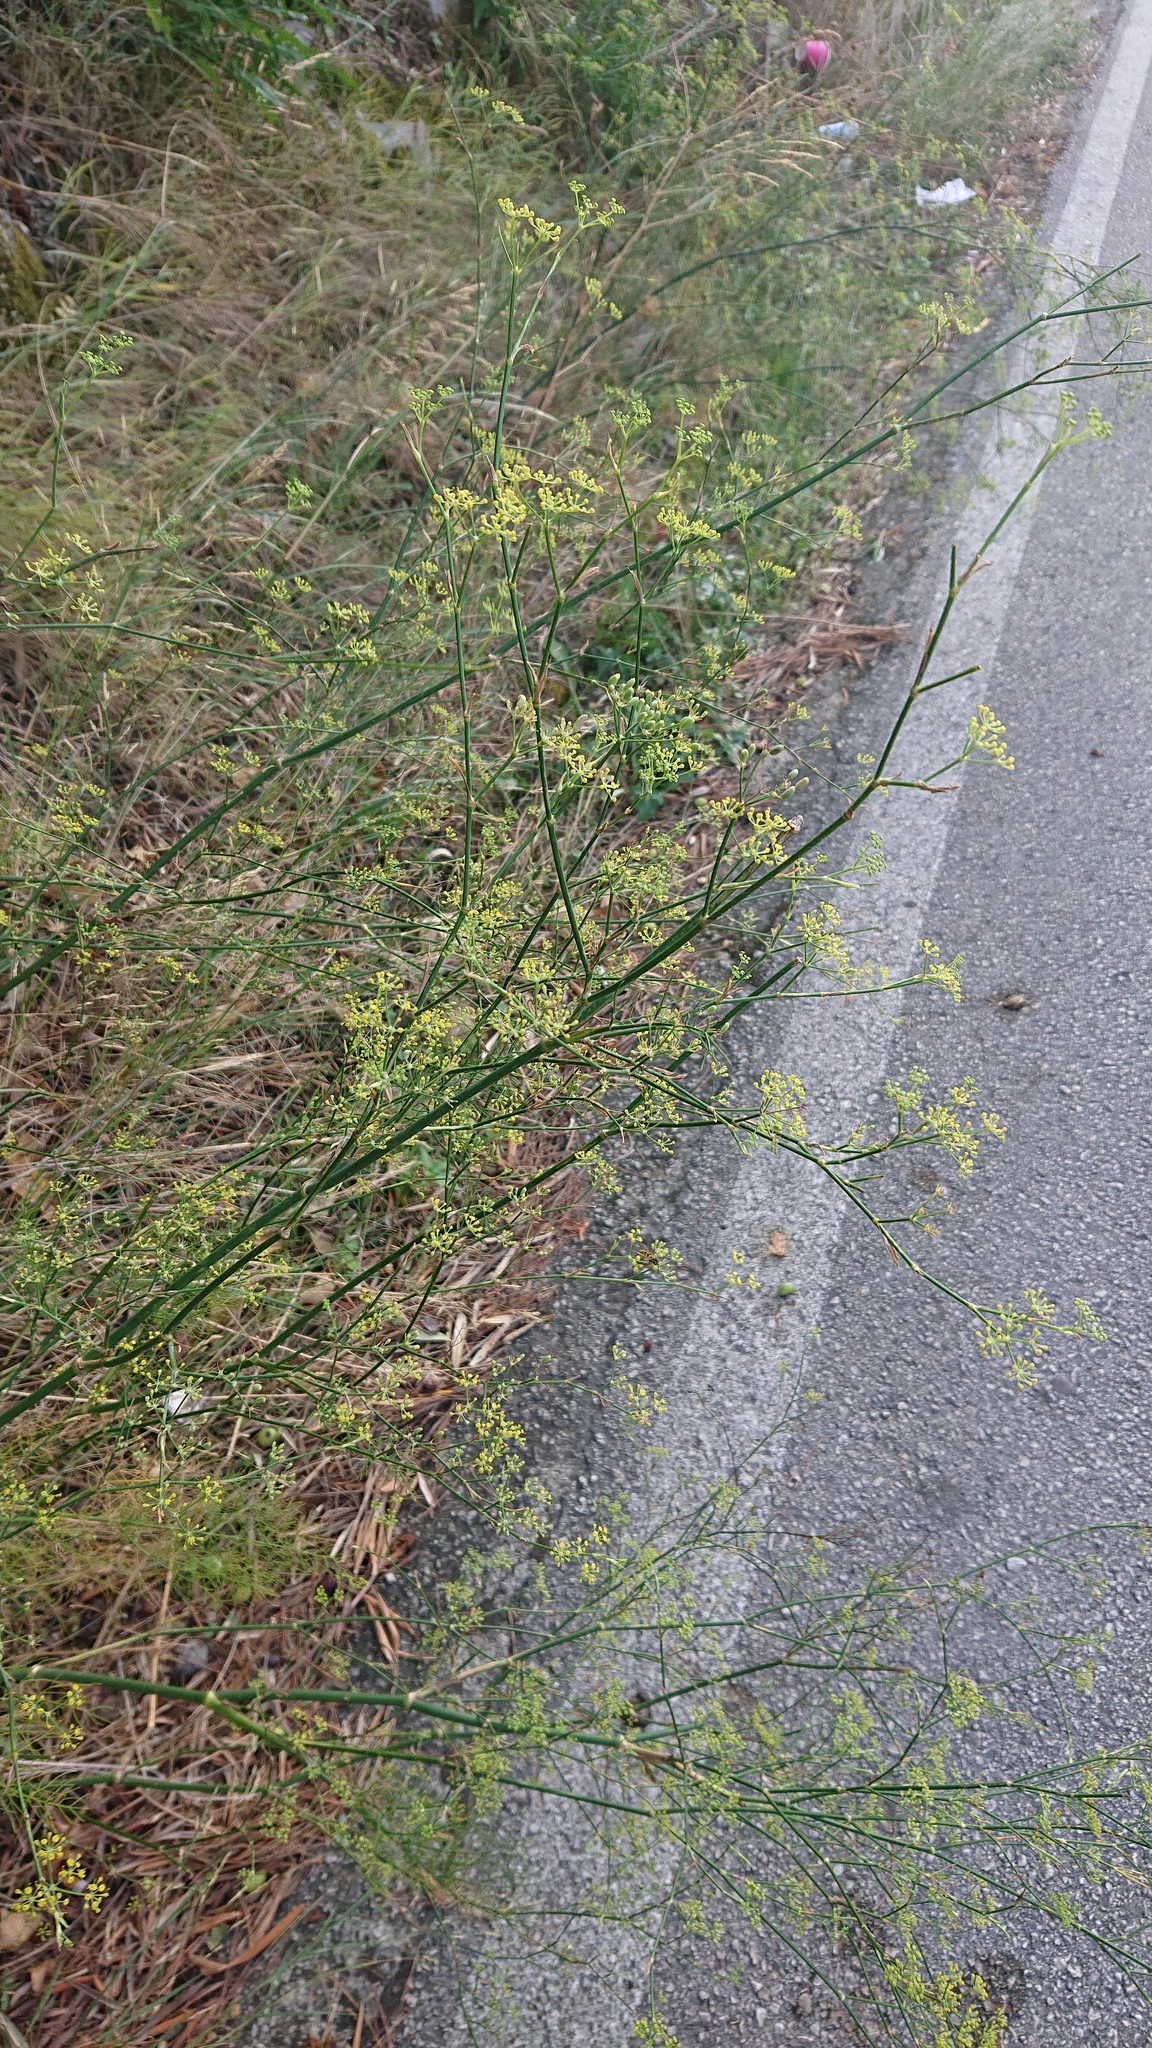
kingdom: Plantae
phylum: Tracheophyta
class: Magnoliopsida
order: Apiales
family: Apiaceae
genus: Foeniculum
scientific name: Foeniculum vulgare
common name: Fennel
